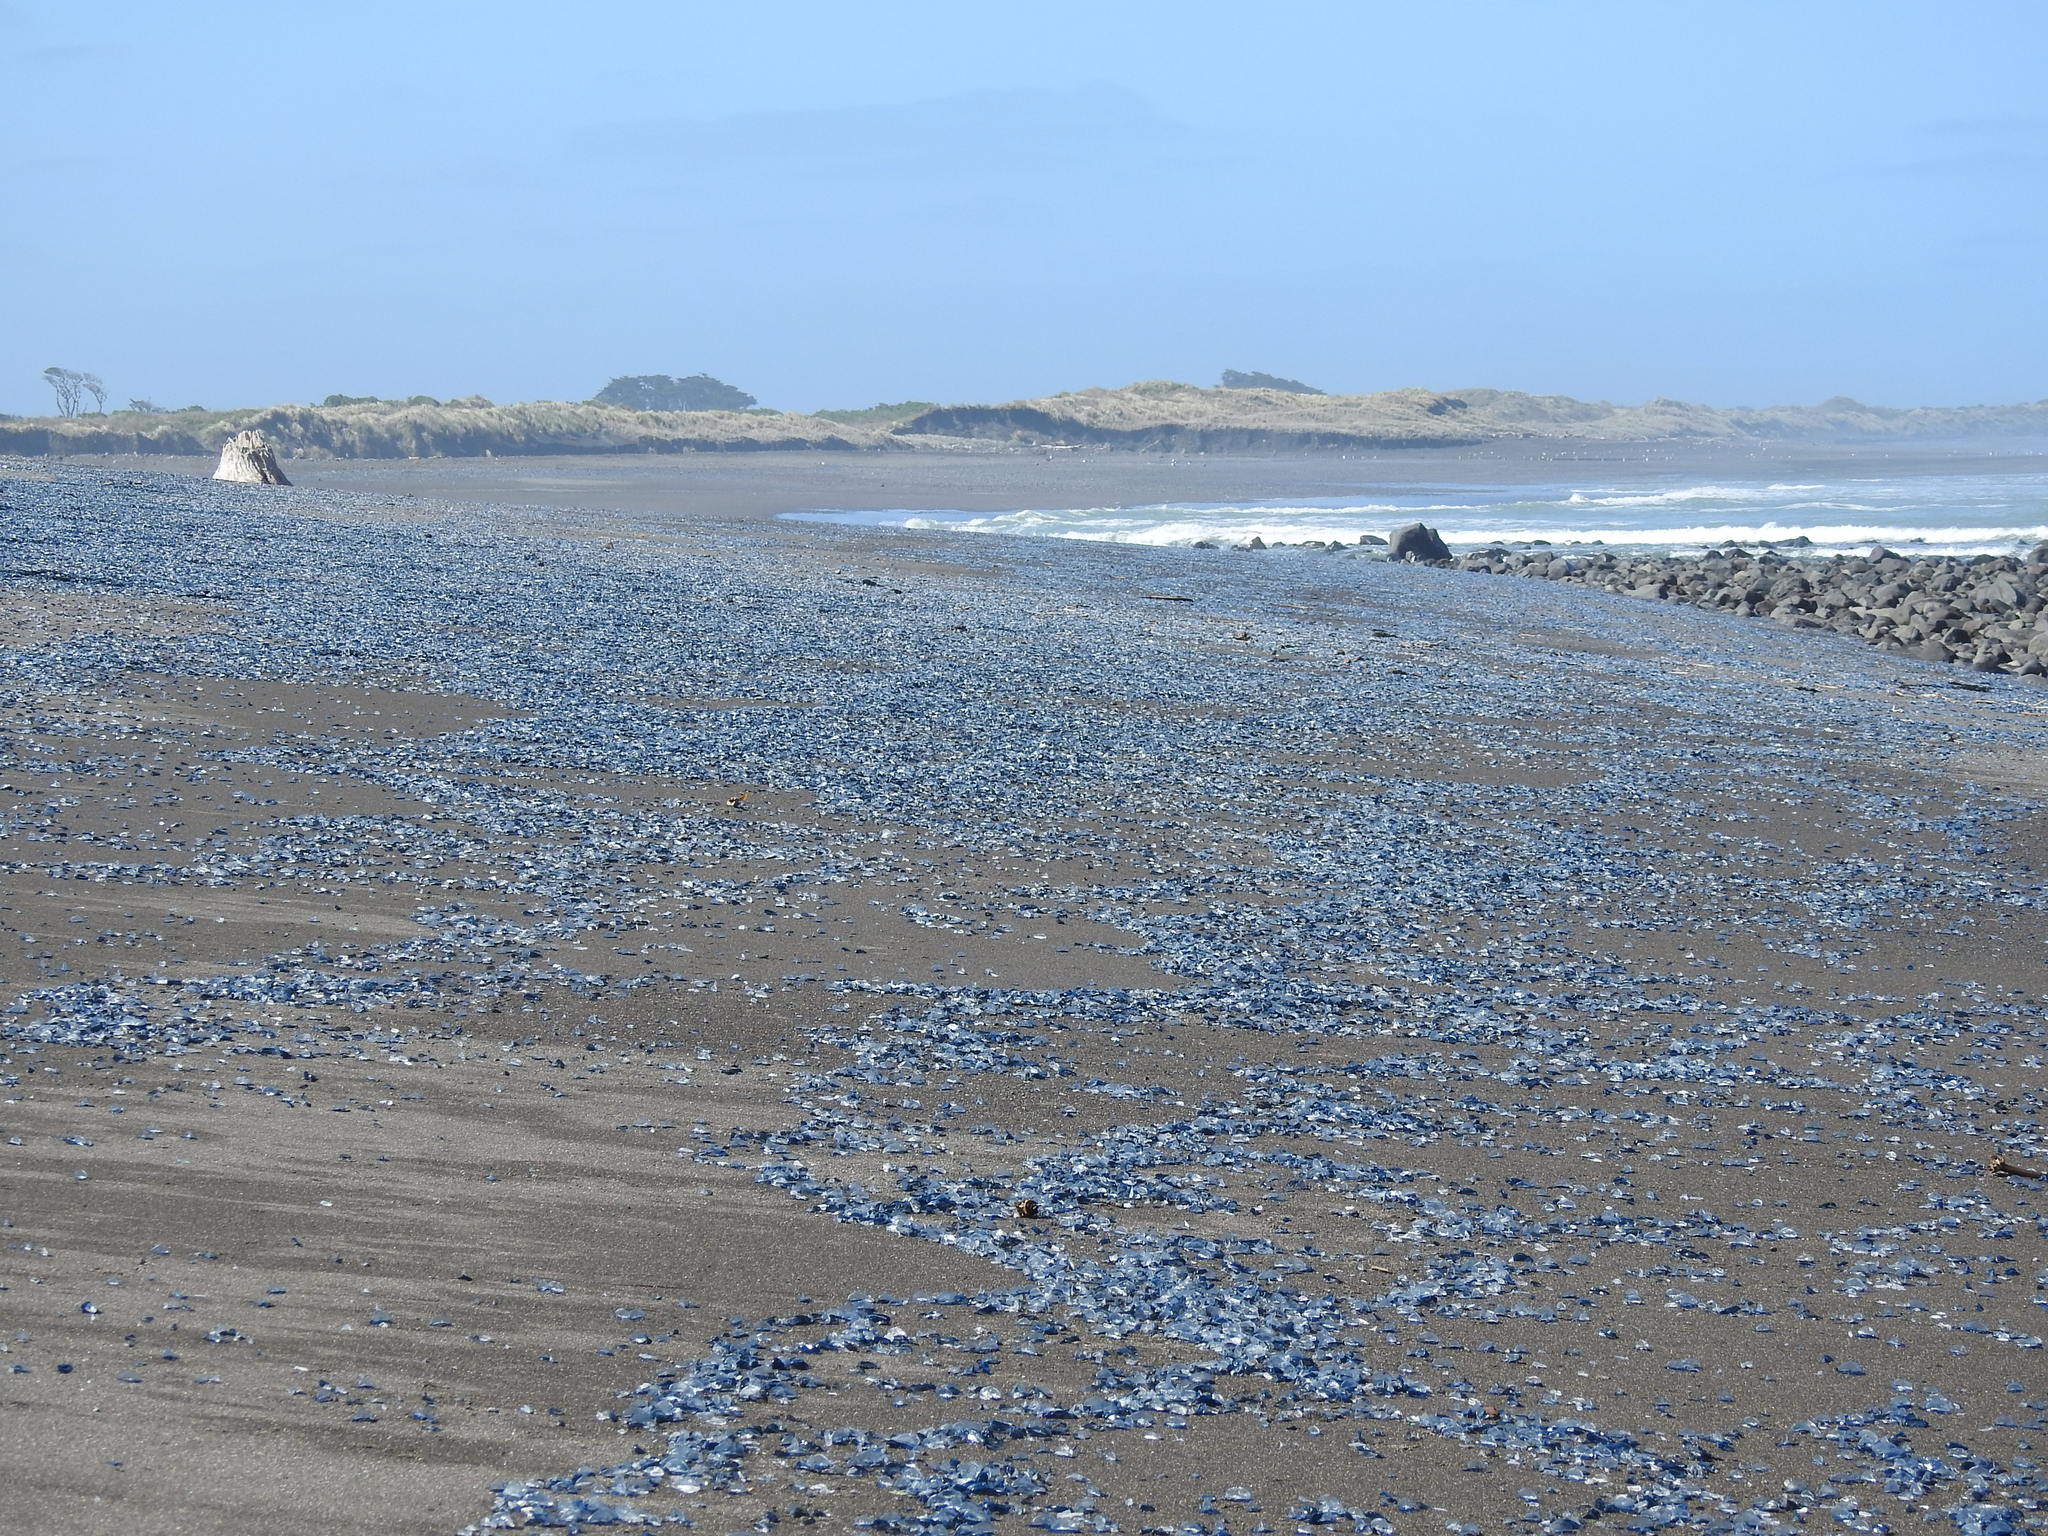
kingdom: Animalia
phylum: Cnidaria
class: Hydrozoa
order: Anthoathecata
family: Porpitidae
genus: Velella
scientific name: Velella velella
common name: By-the-wind-sailor
